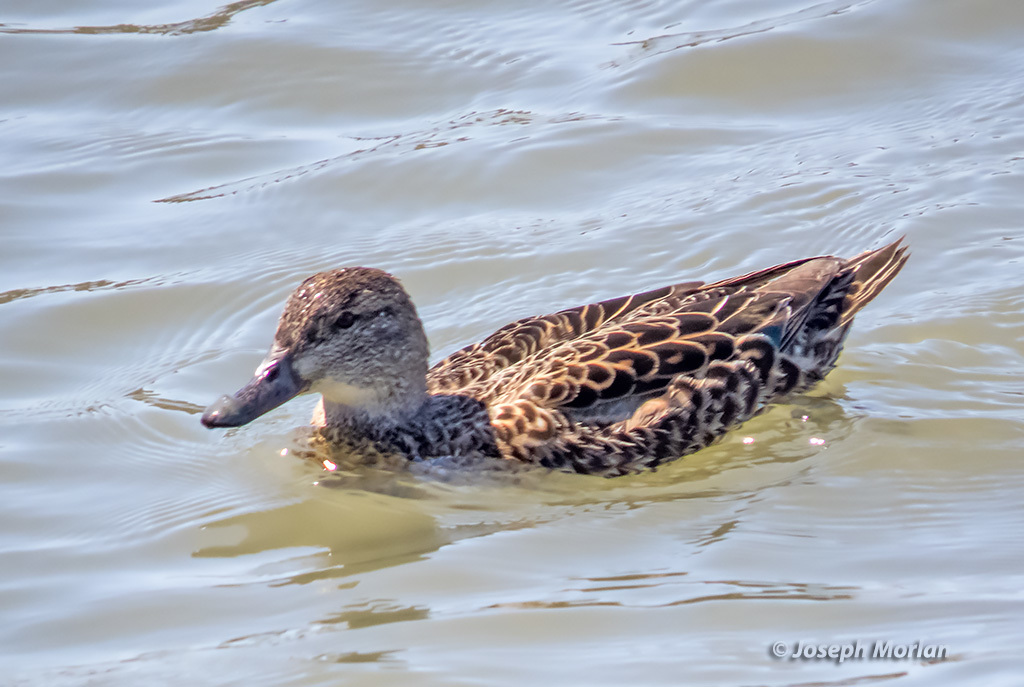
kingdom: Animalia
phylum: Chordata
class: Aves
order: Anseriformes
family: Anatidae
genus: Anas
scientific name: Anas crecca
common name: Eurasian teal
